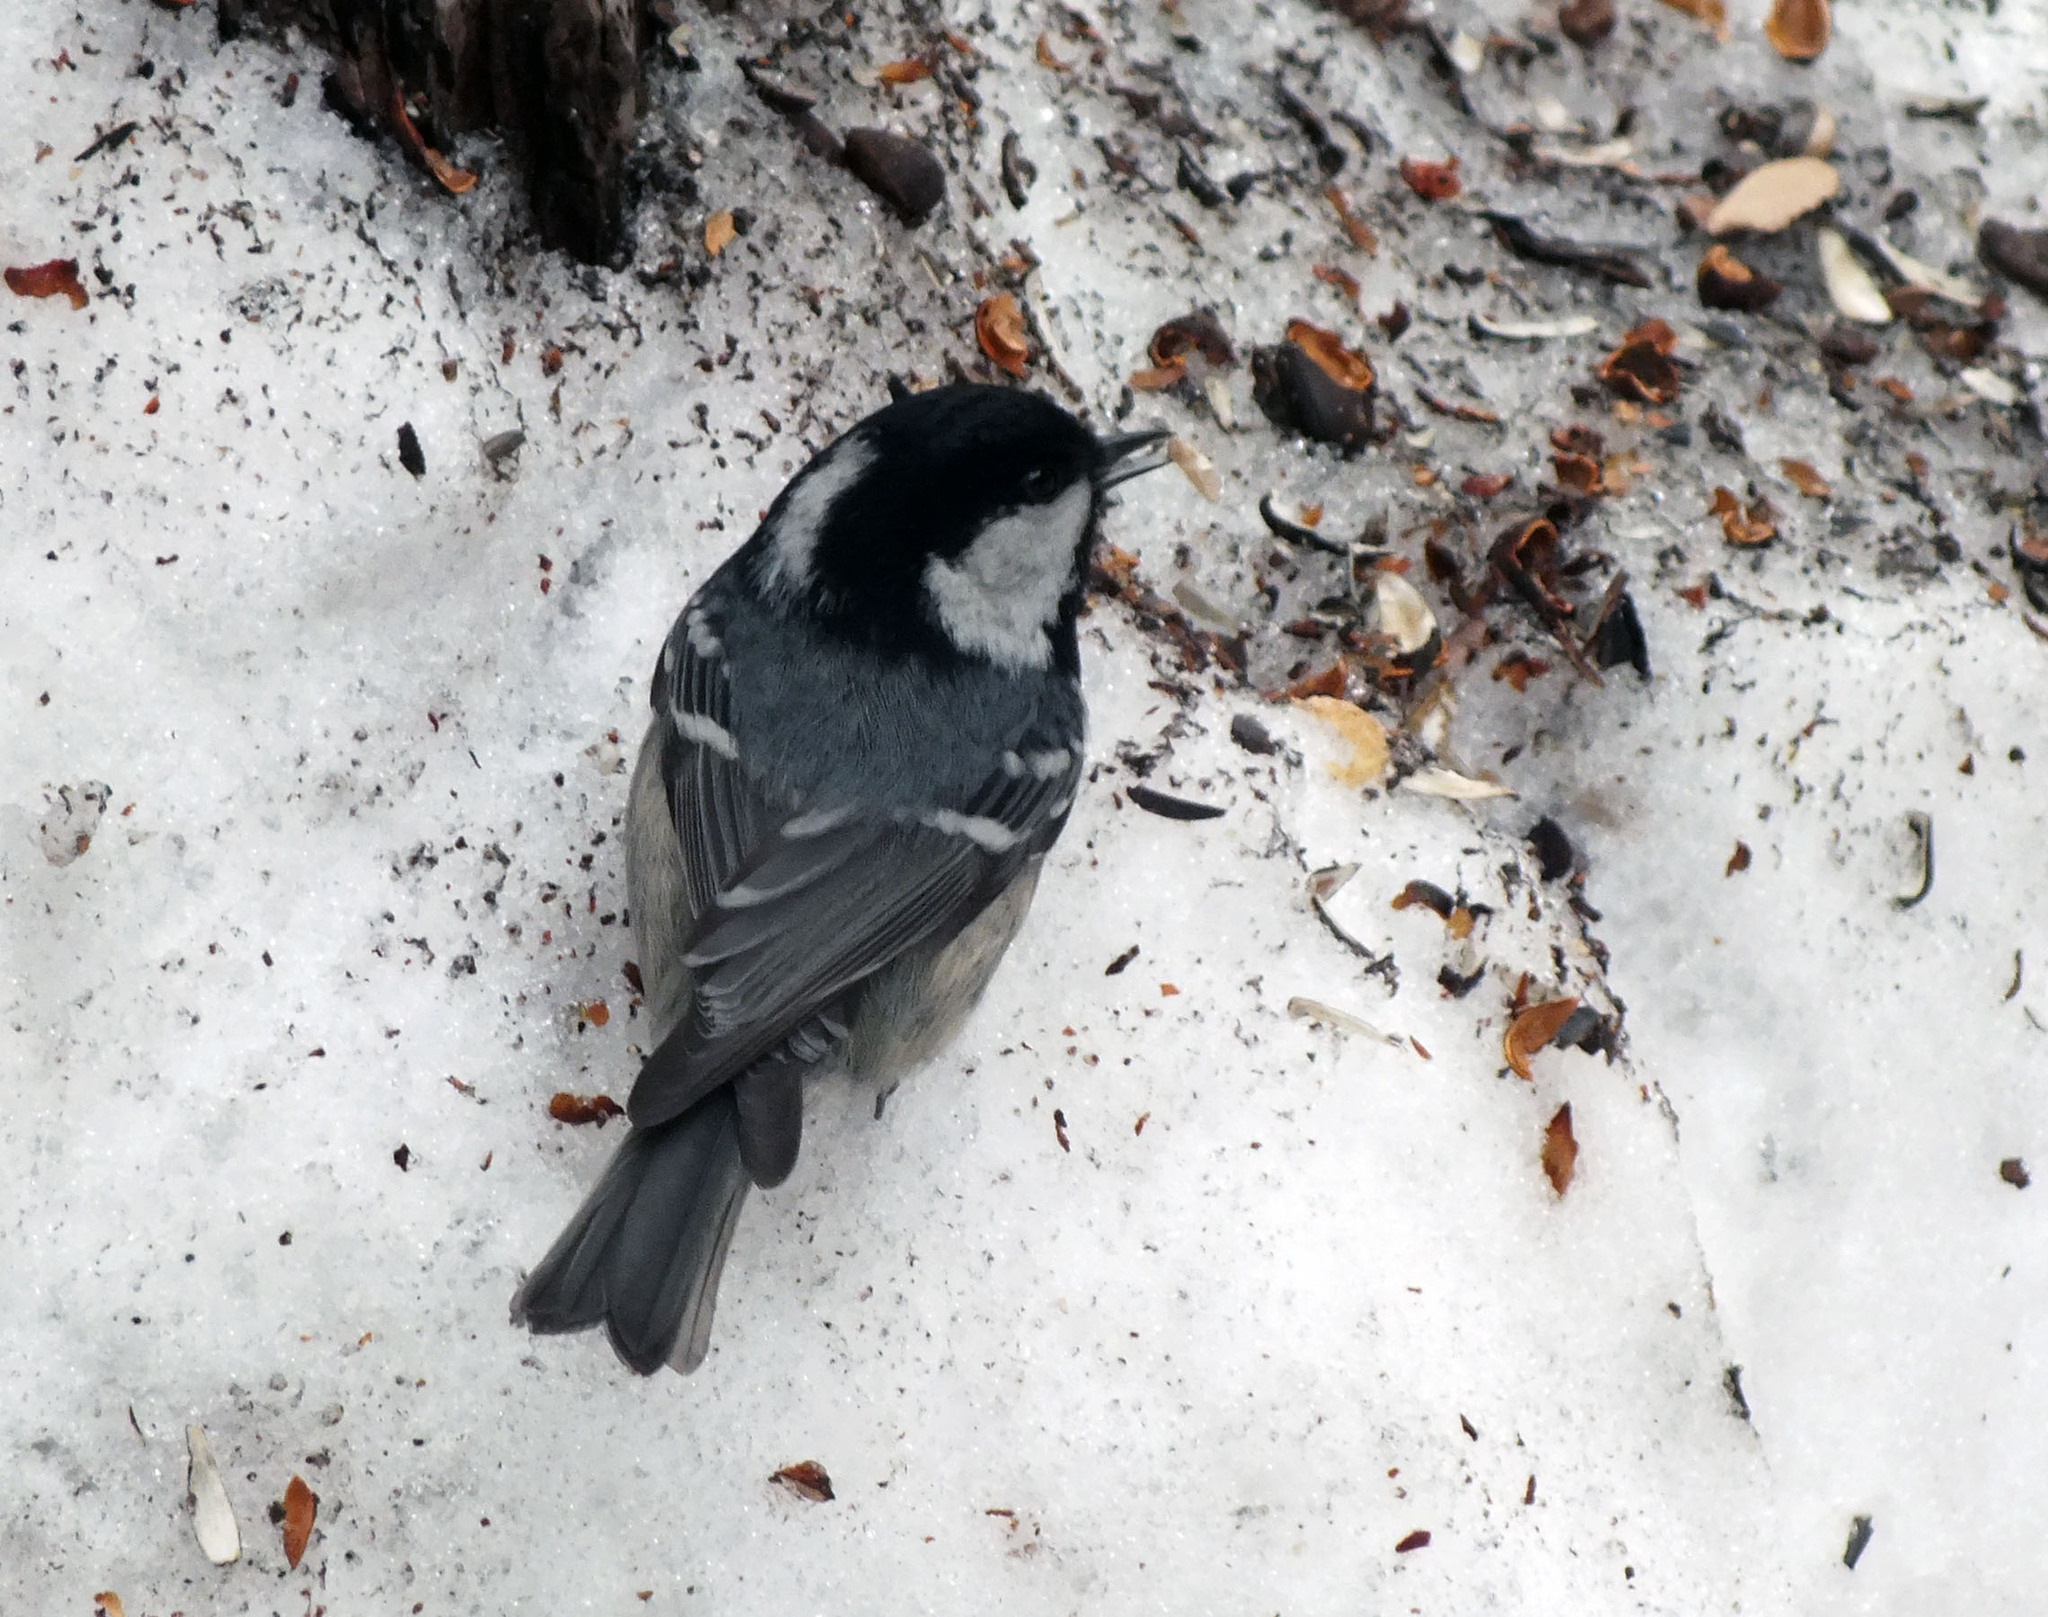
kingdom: Animalia
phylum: Chordata
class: Aves
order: Passeriformes
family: Paridae
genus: Periparus
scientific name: Periparus ater
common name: Coal tit
